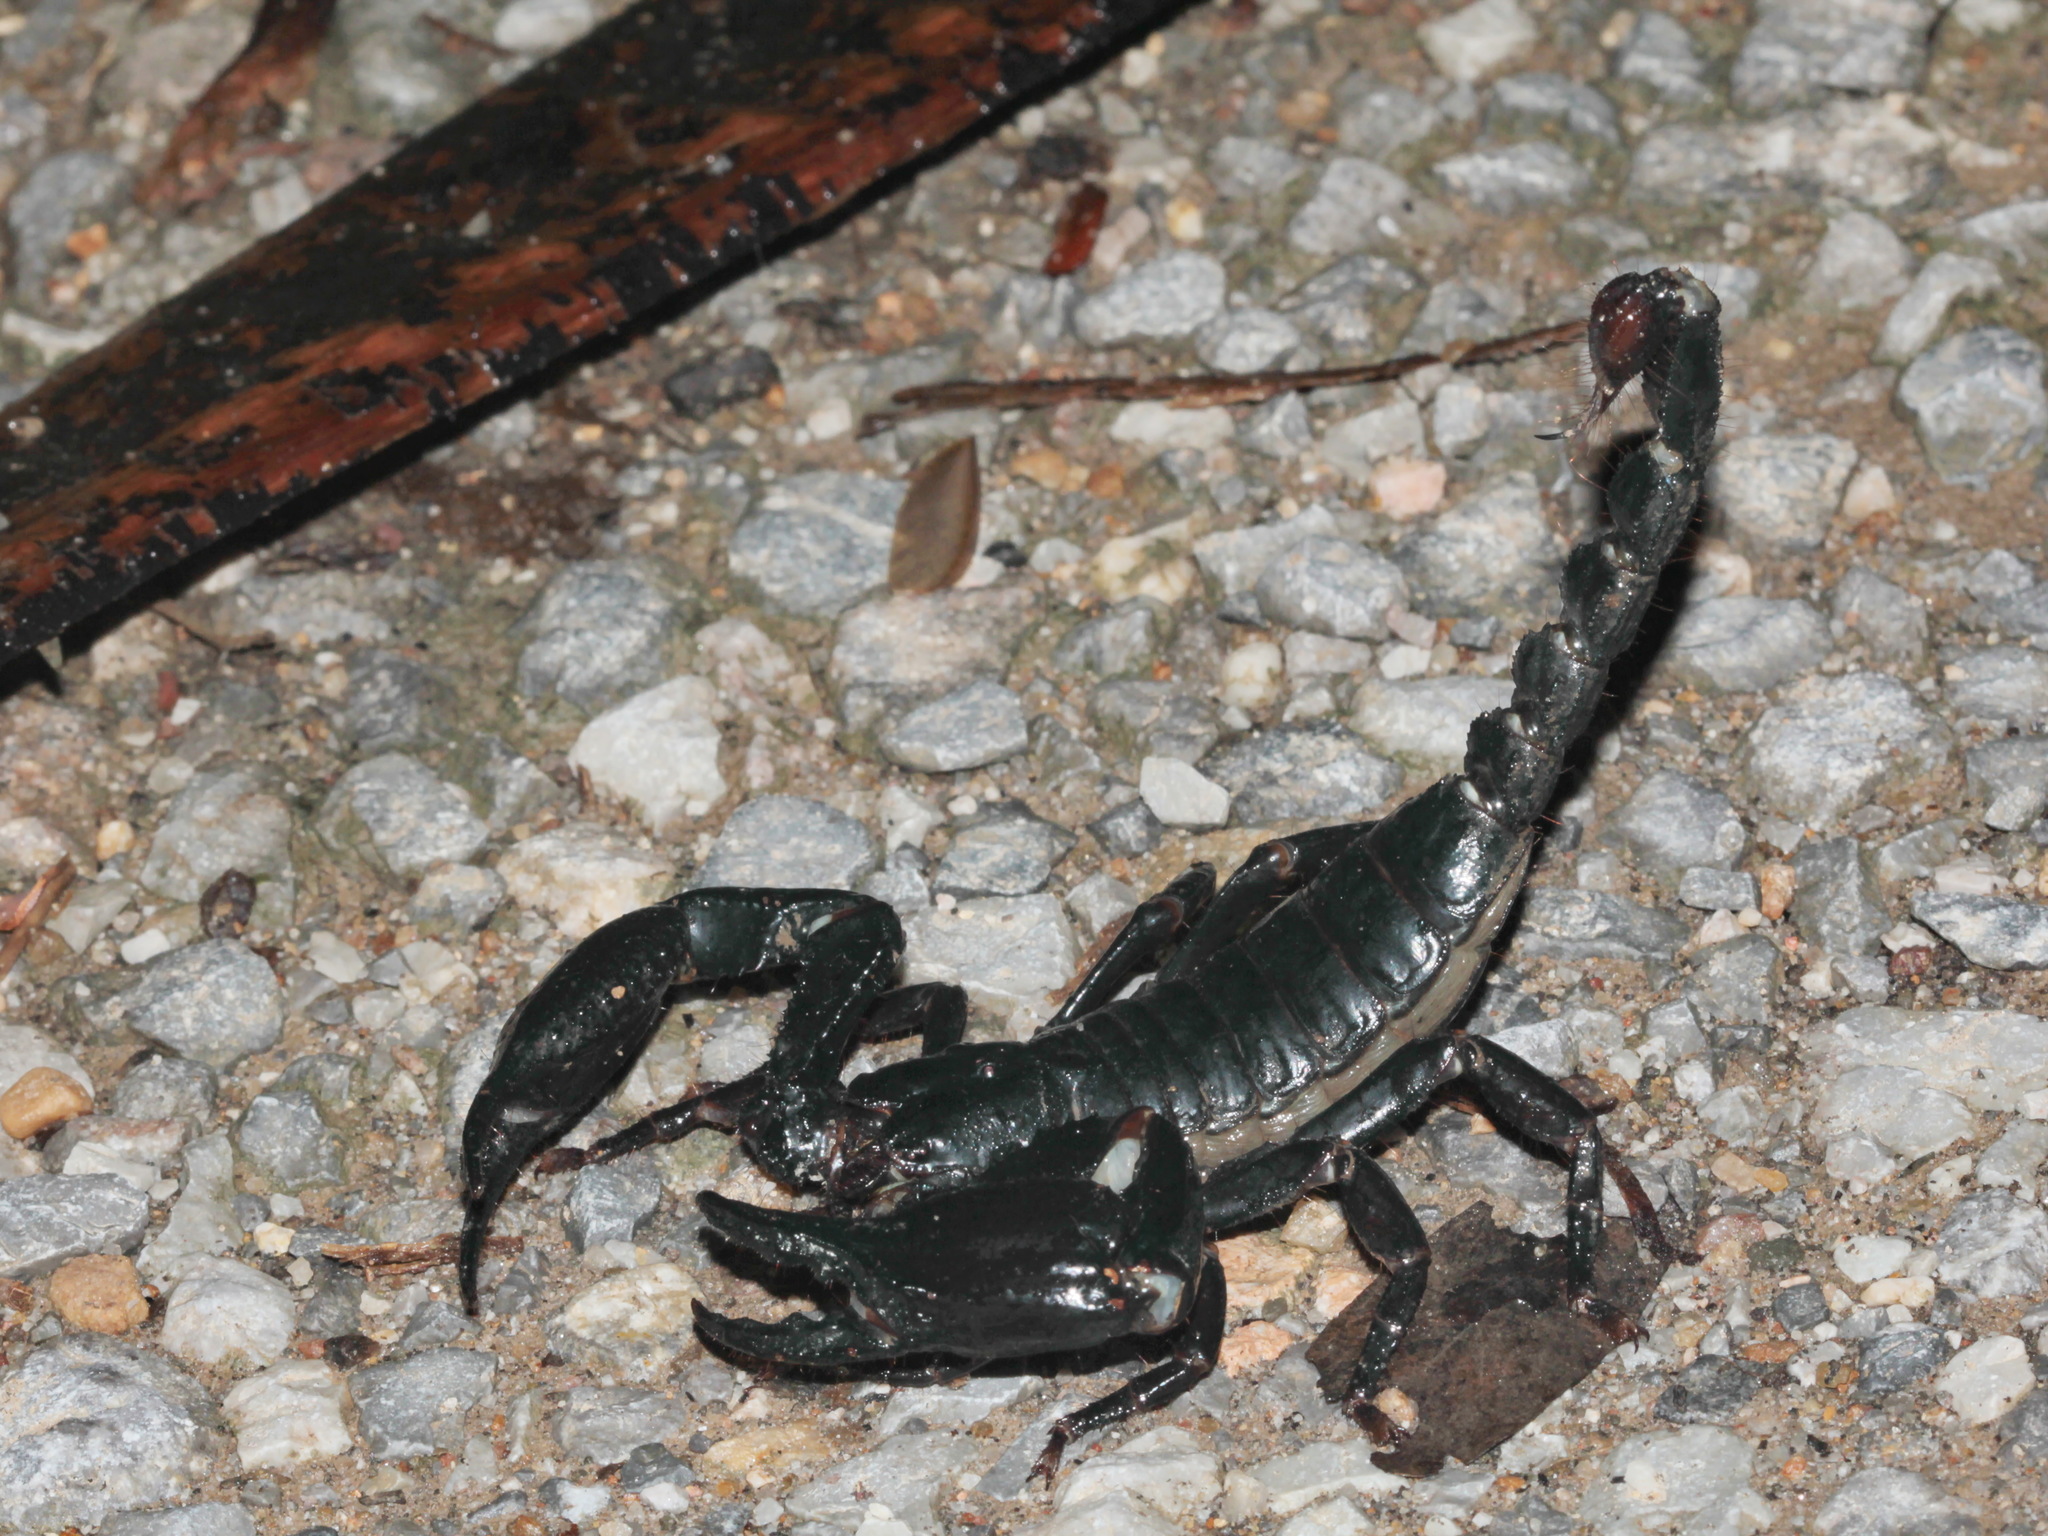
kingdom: Animalia
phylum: Arthropoda
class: Arachnida
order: Scorpiones
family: Scorpionidae
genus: Heterometrus
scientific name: Heterometrus laevigatus
